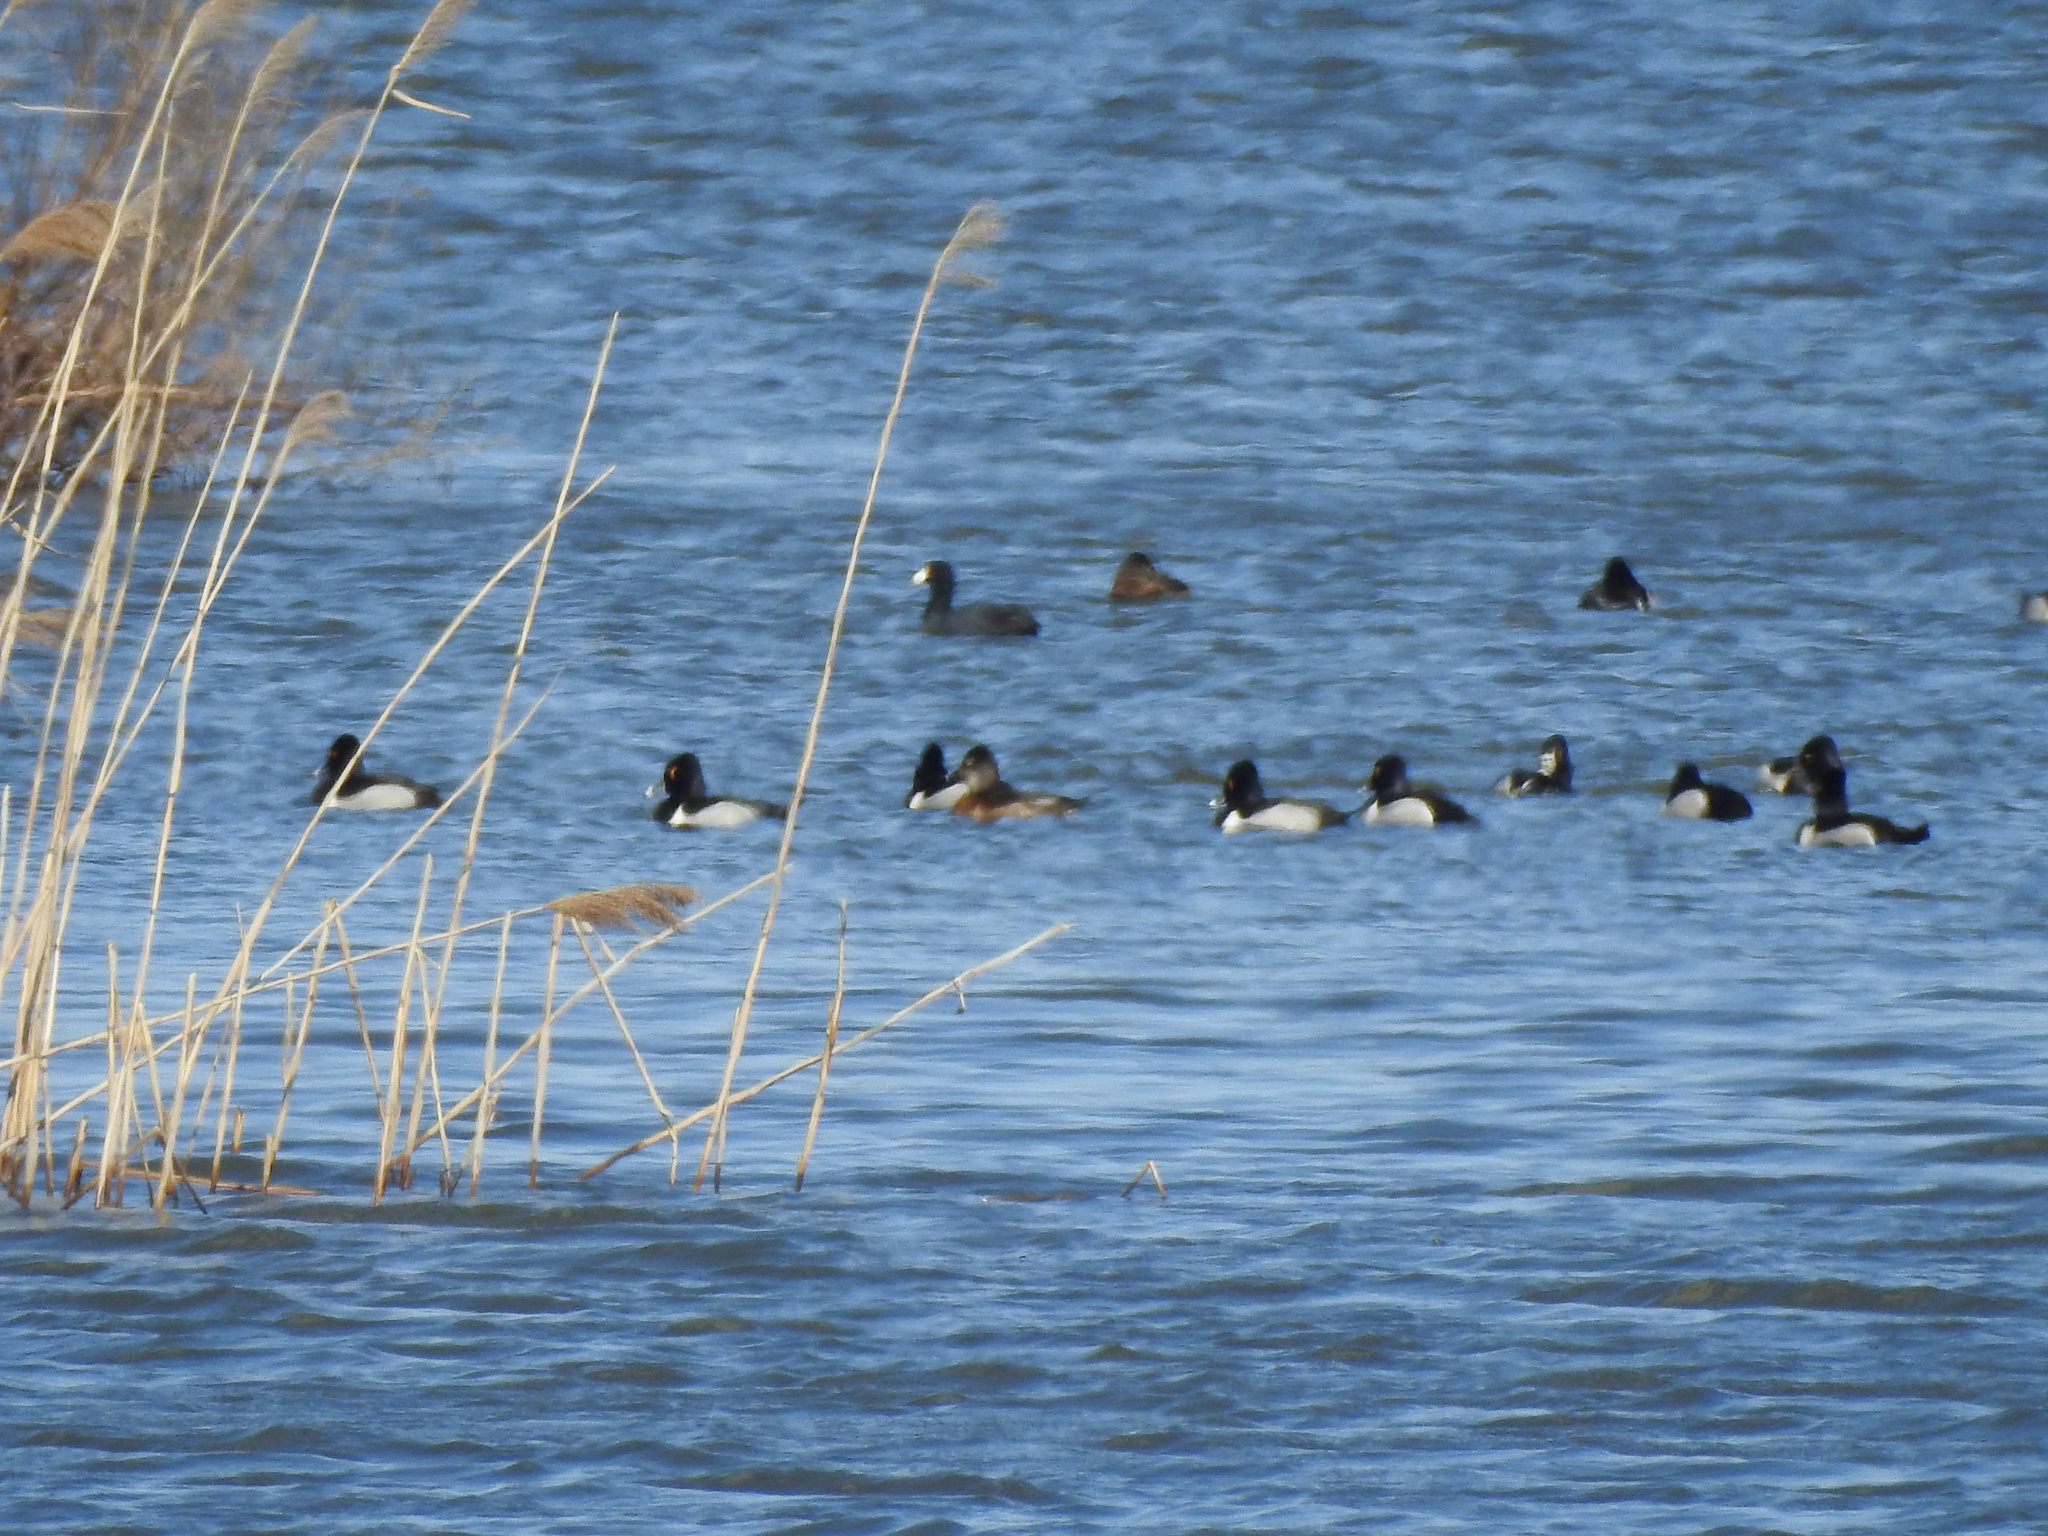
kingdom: Animalia
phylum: Chordata
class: Aves
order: Anseriformes
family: Anatidae
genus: Aythya
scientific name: Aythya collaris
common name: Ring-necked duck
